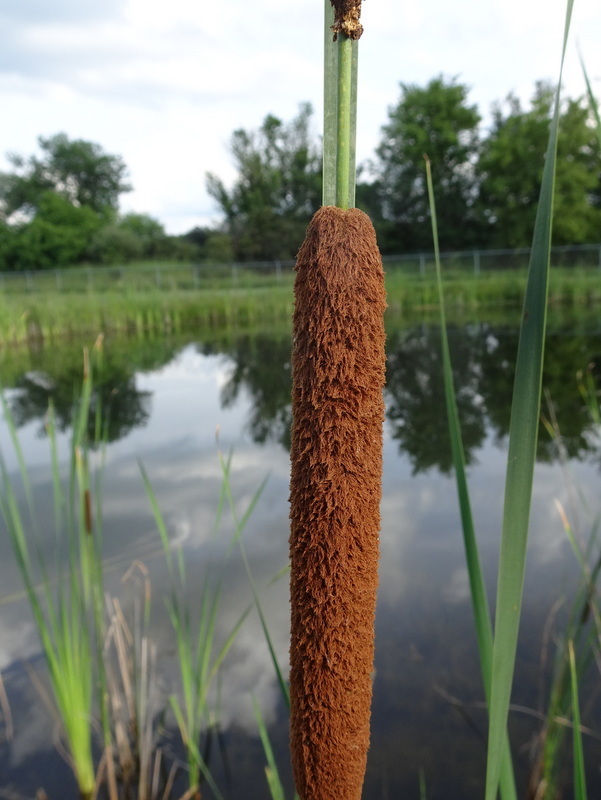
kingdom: Plantae
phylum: Tracheophyta
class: Liliopsida
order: Poales
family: Typhaceae
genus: Typha
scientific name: Typha angustifolia
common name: Lesser bulrush
